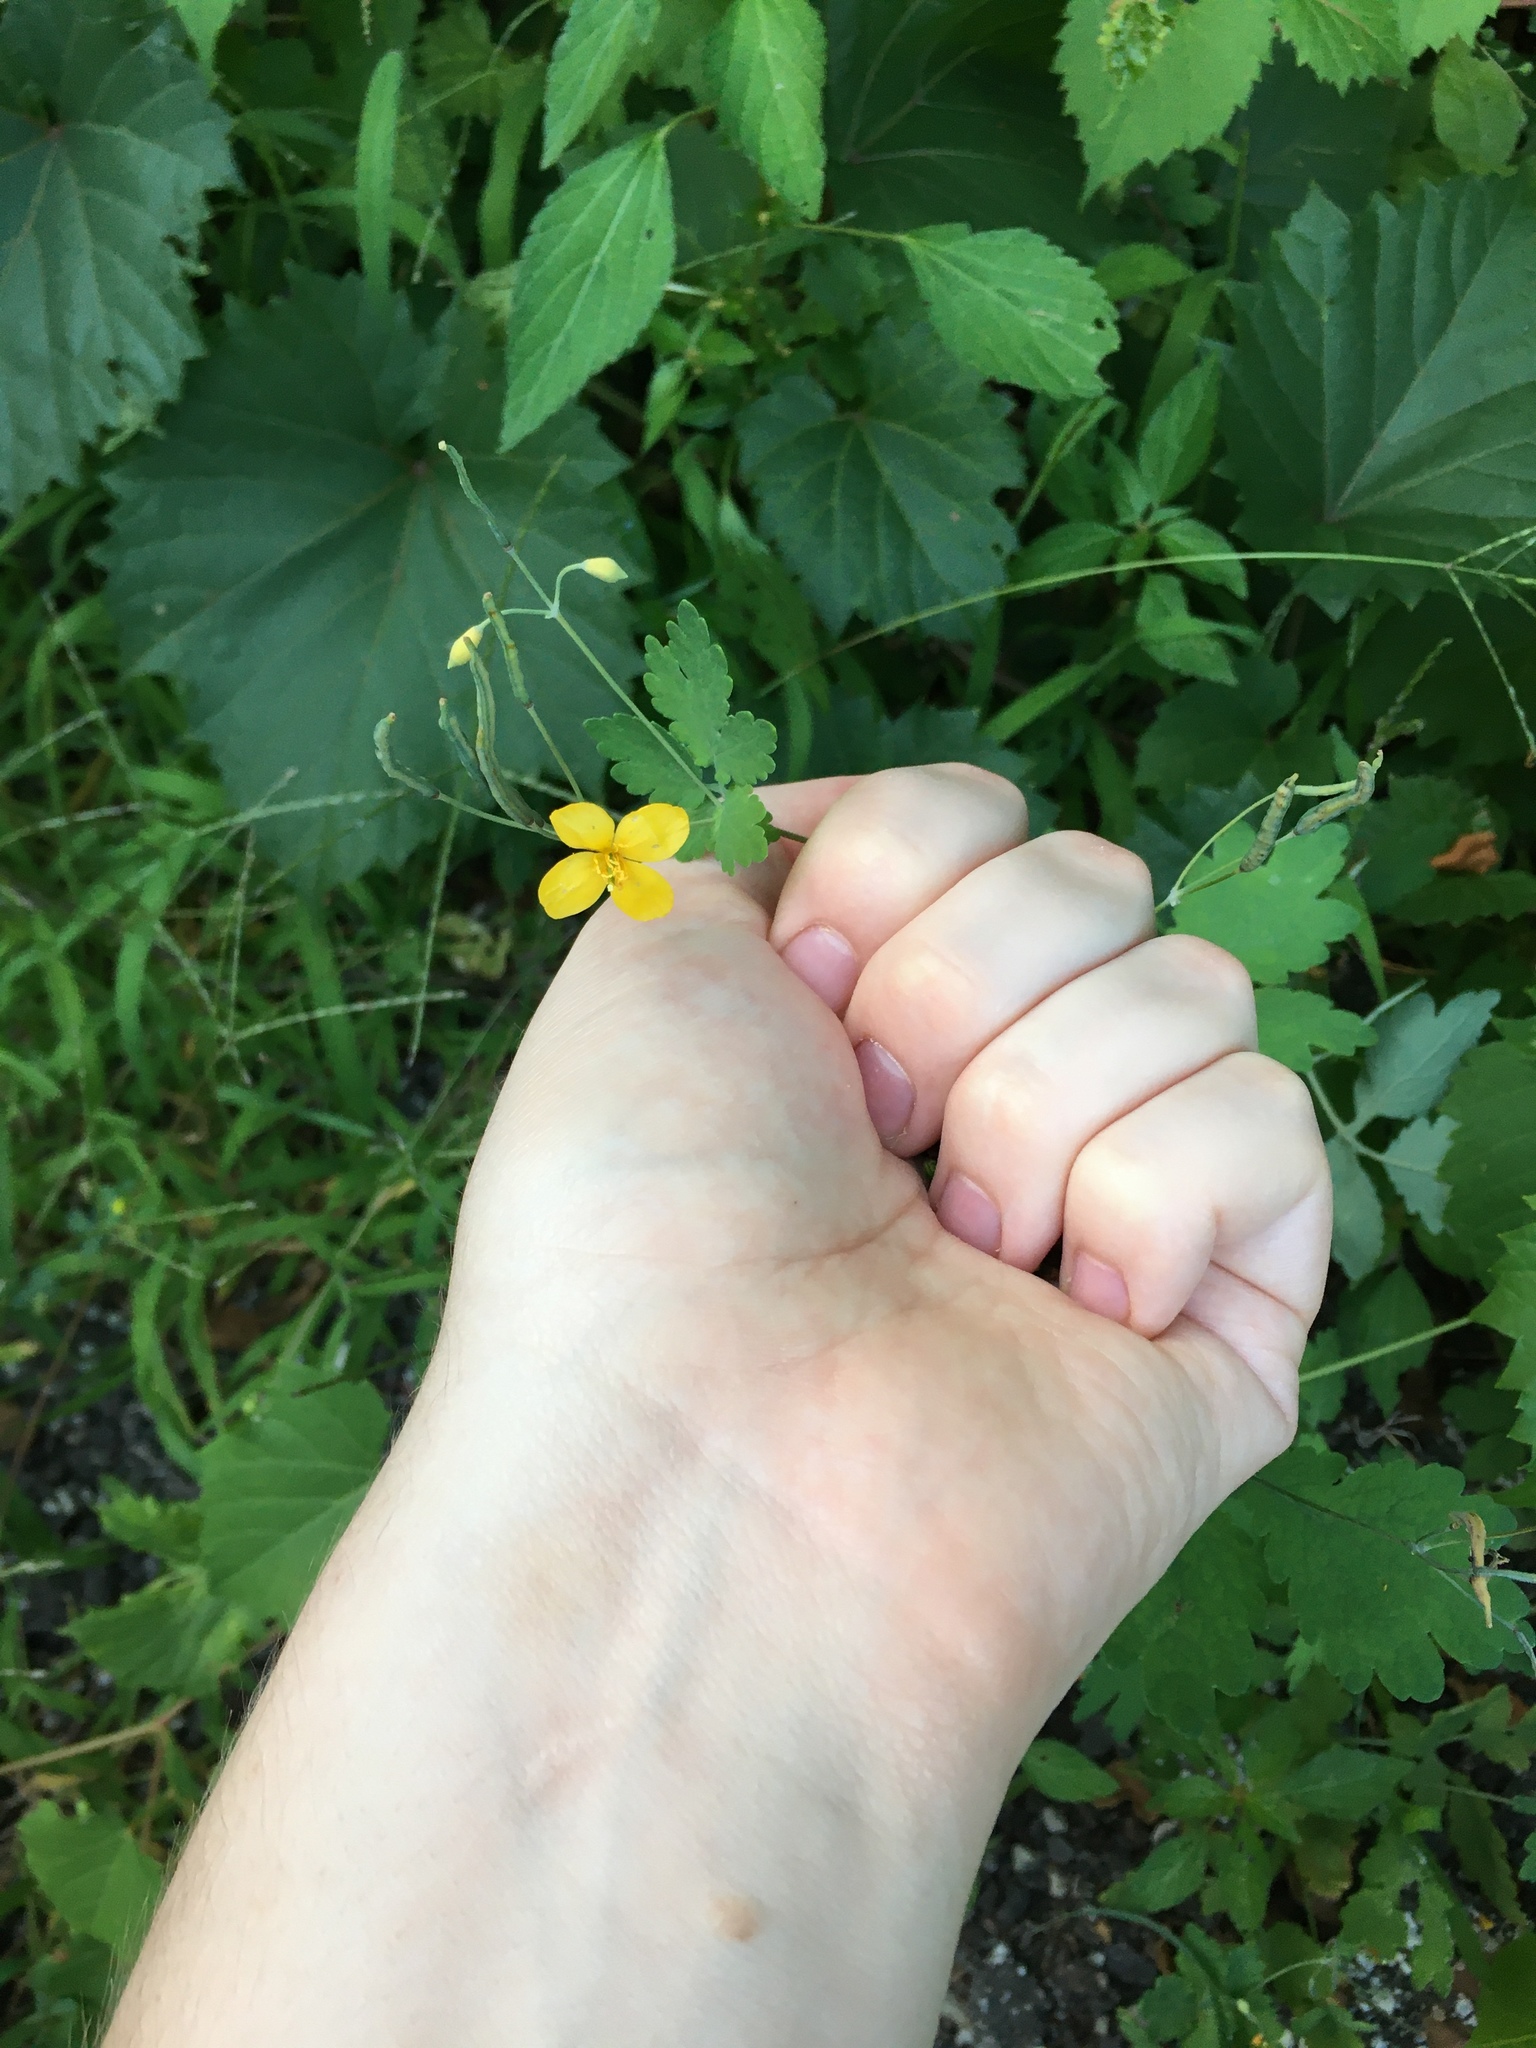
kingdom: Plantae
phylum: Tracheophyta
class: Magnoliopsida
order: Ranunculales
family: Papaveraceae
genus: Chelidonium
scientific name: Chelidonium majus
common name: Greater celandine
